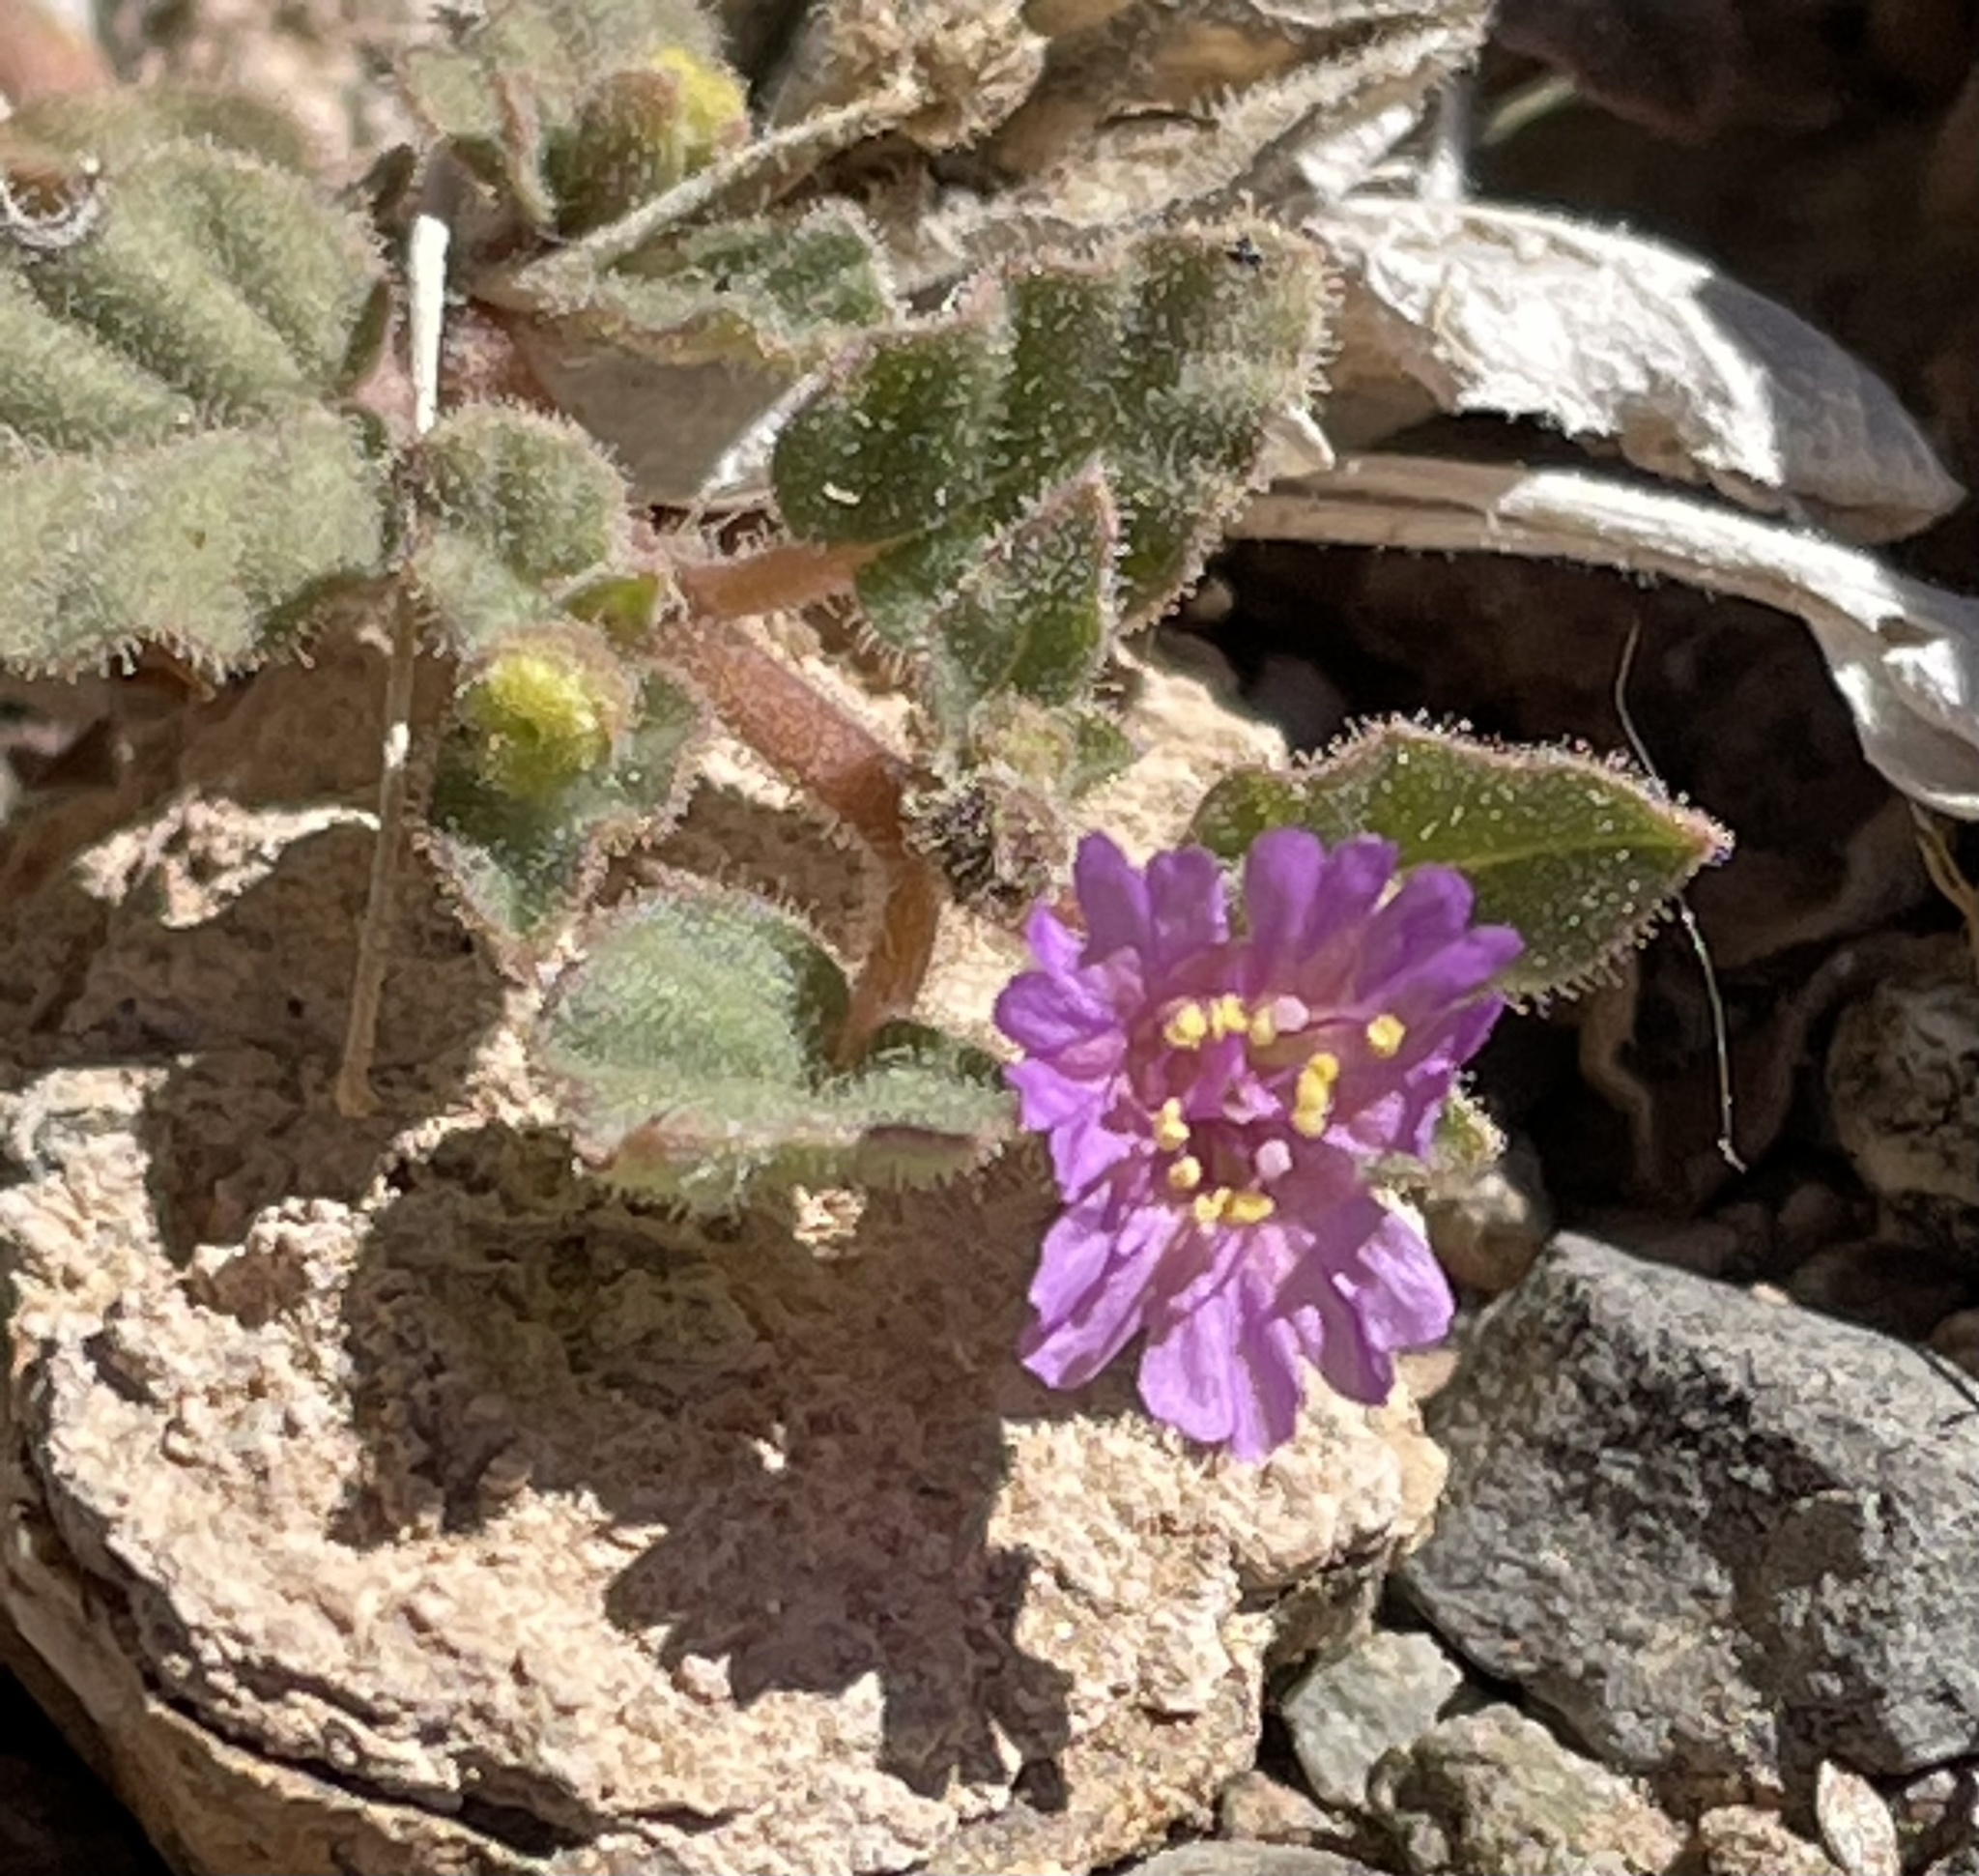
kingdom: Plantae
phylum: Tracheophyta
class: Magnoliopsida
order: Caryophyllales
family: Nyctaginaceae
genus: Allionia
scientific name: Allionia incarnata
